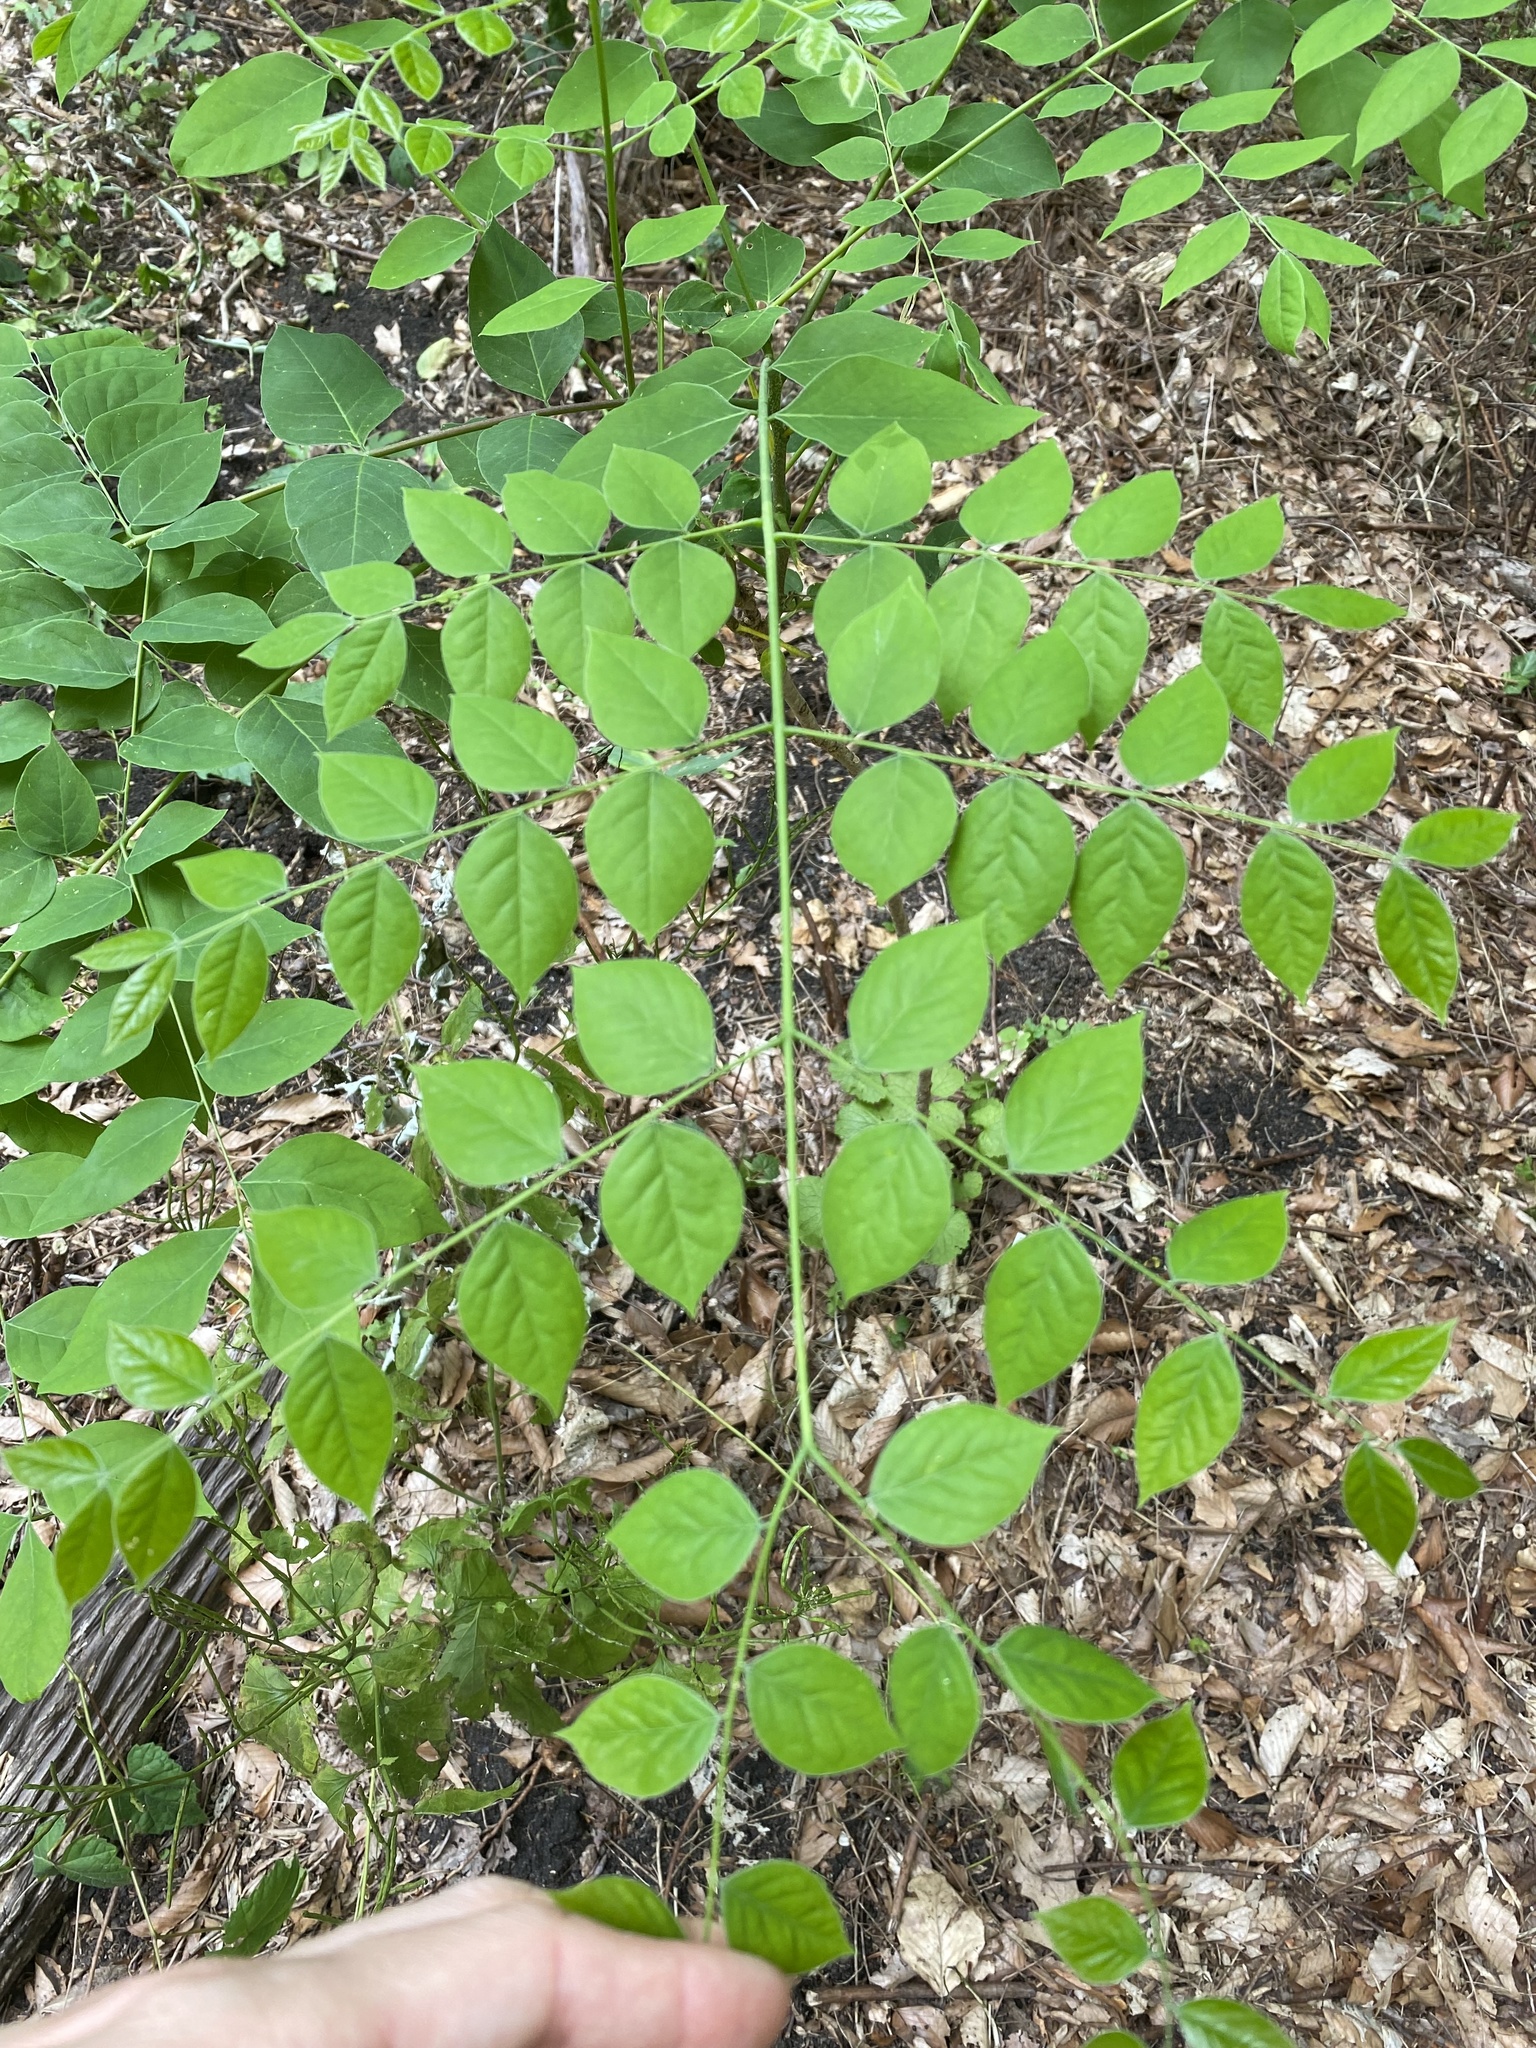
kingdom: Plantae
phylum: Tracheophyta
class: Magnoliopsida
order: Fabales
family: Fabaceae
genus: Gymnocladus
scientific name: Gymnocladus dioicus
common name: Kentucky coffee-tree
